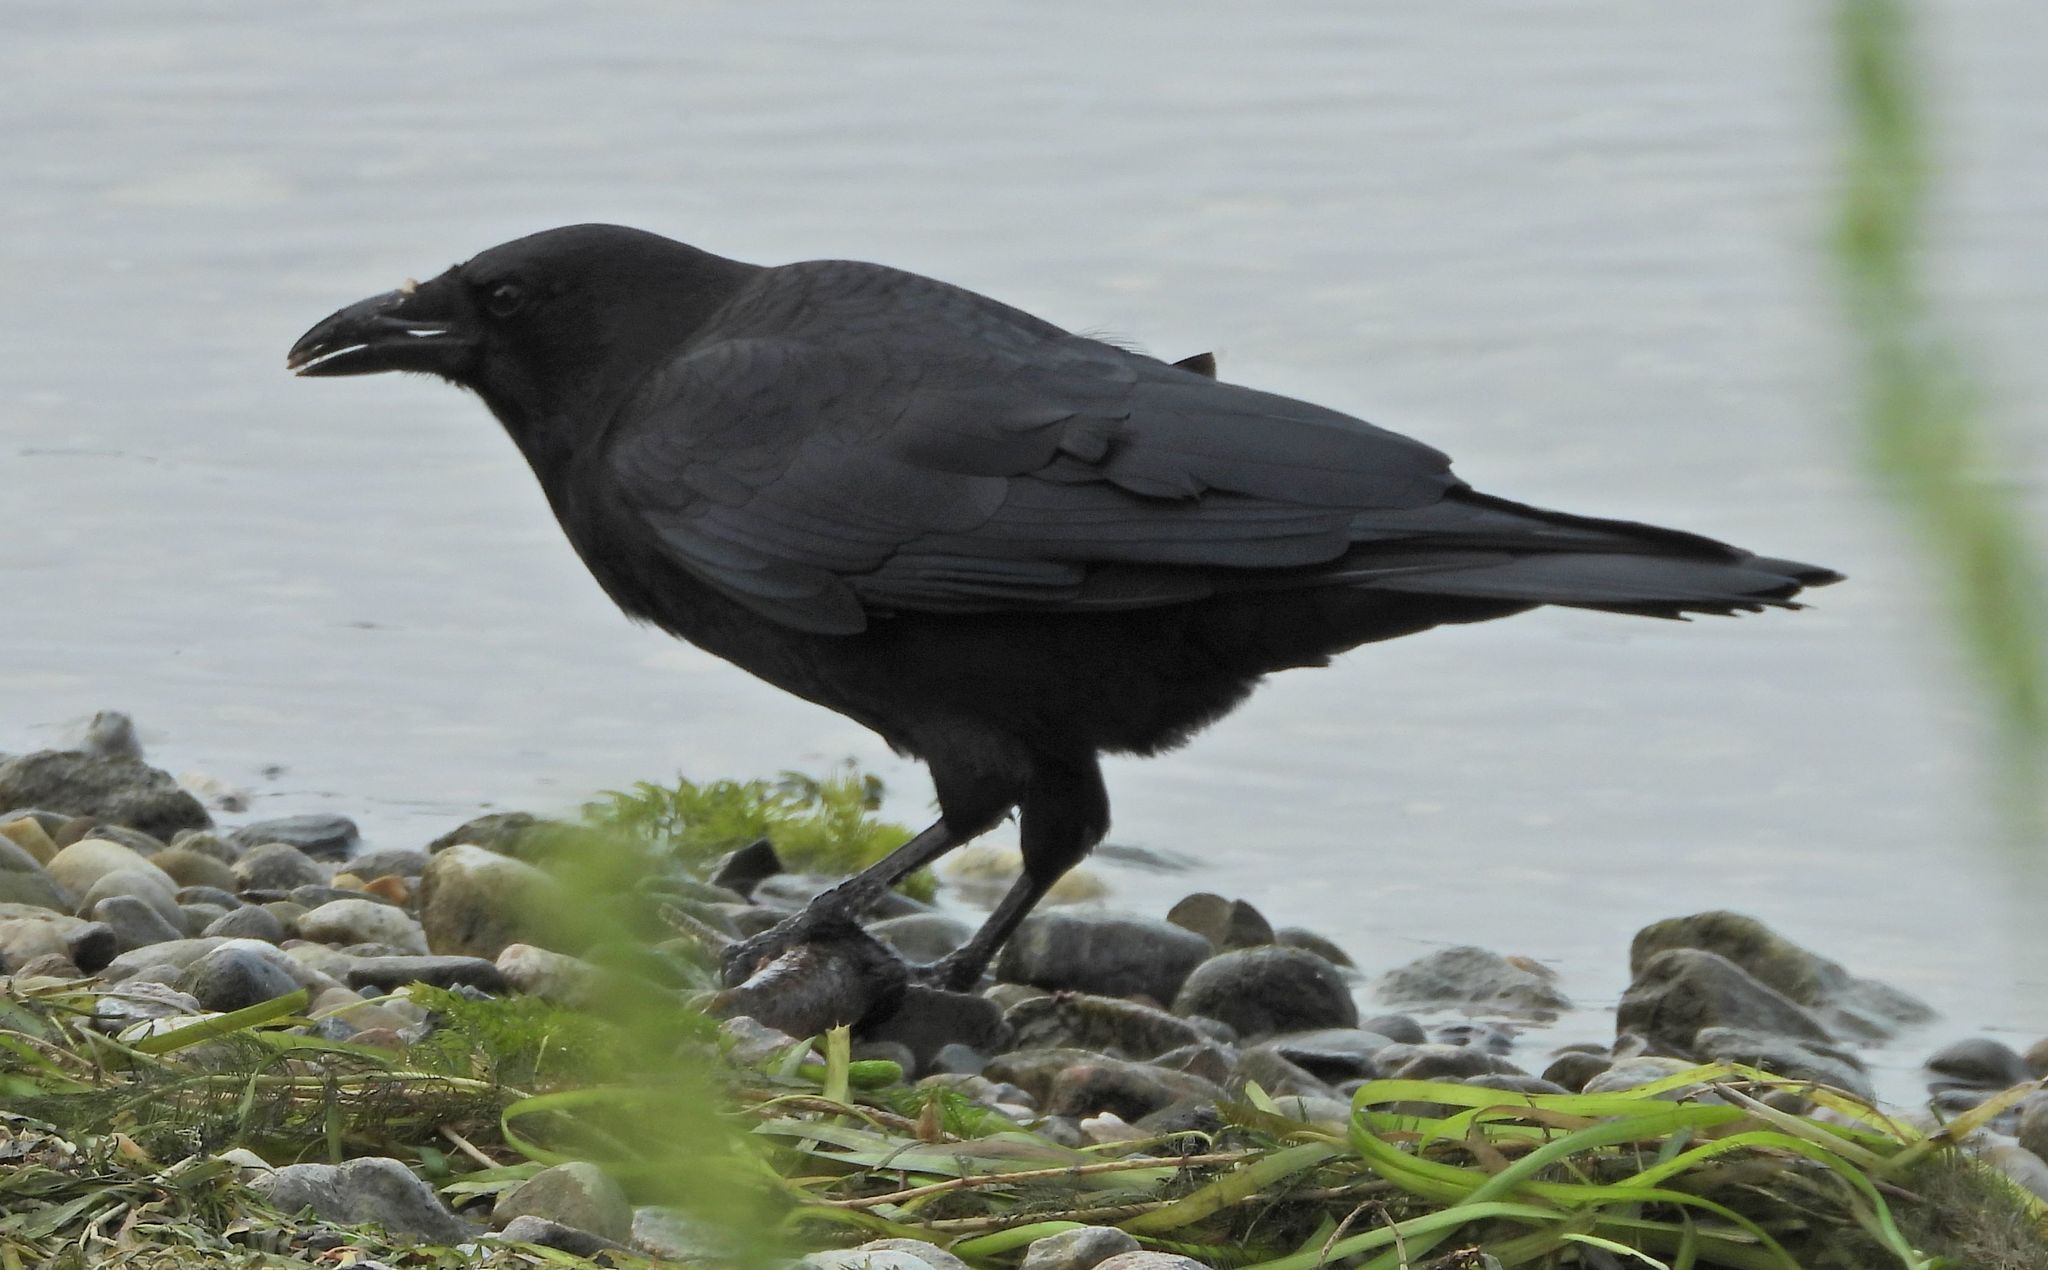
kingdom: Animalia
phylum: Chordata
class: Aves
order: Passeriformes
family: Corvidae
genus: Corvus
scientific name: Corvus brachyrhynchos
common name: American crow
